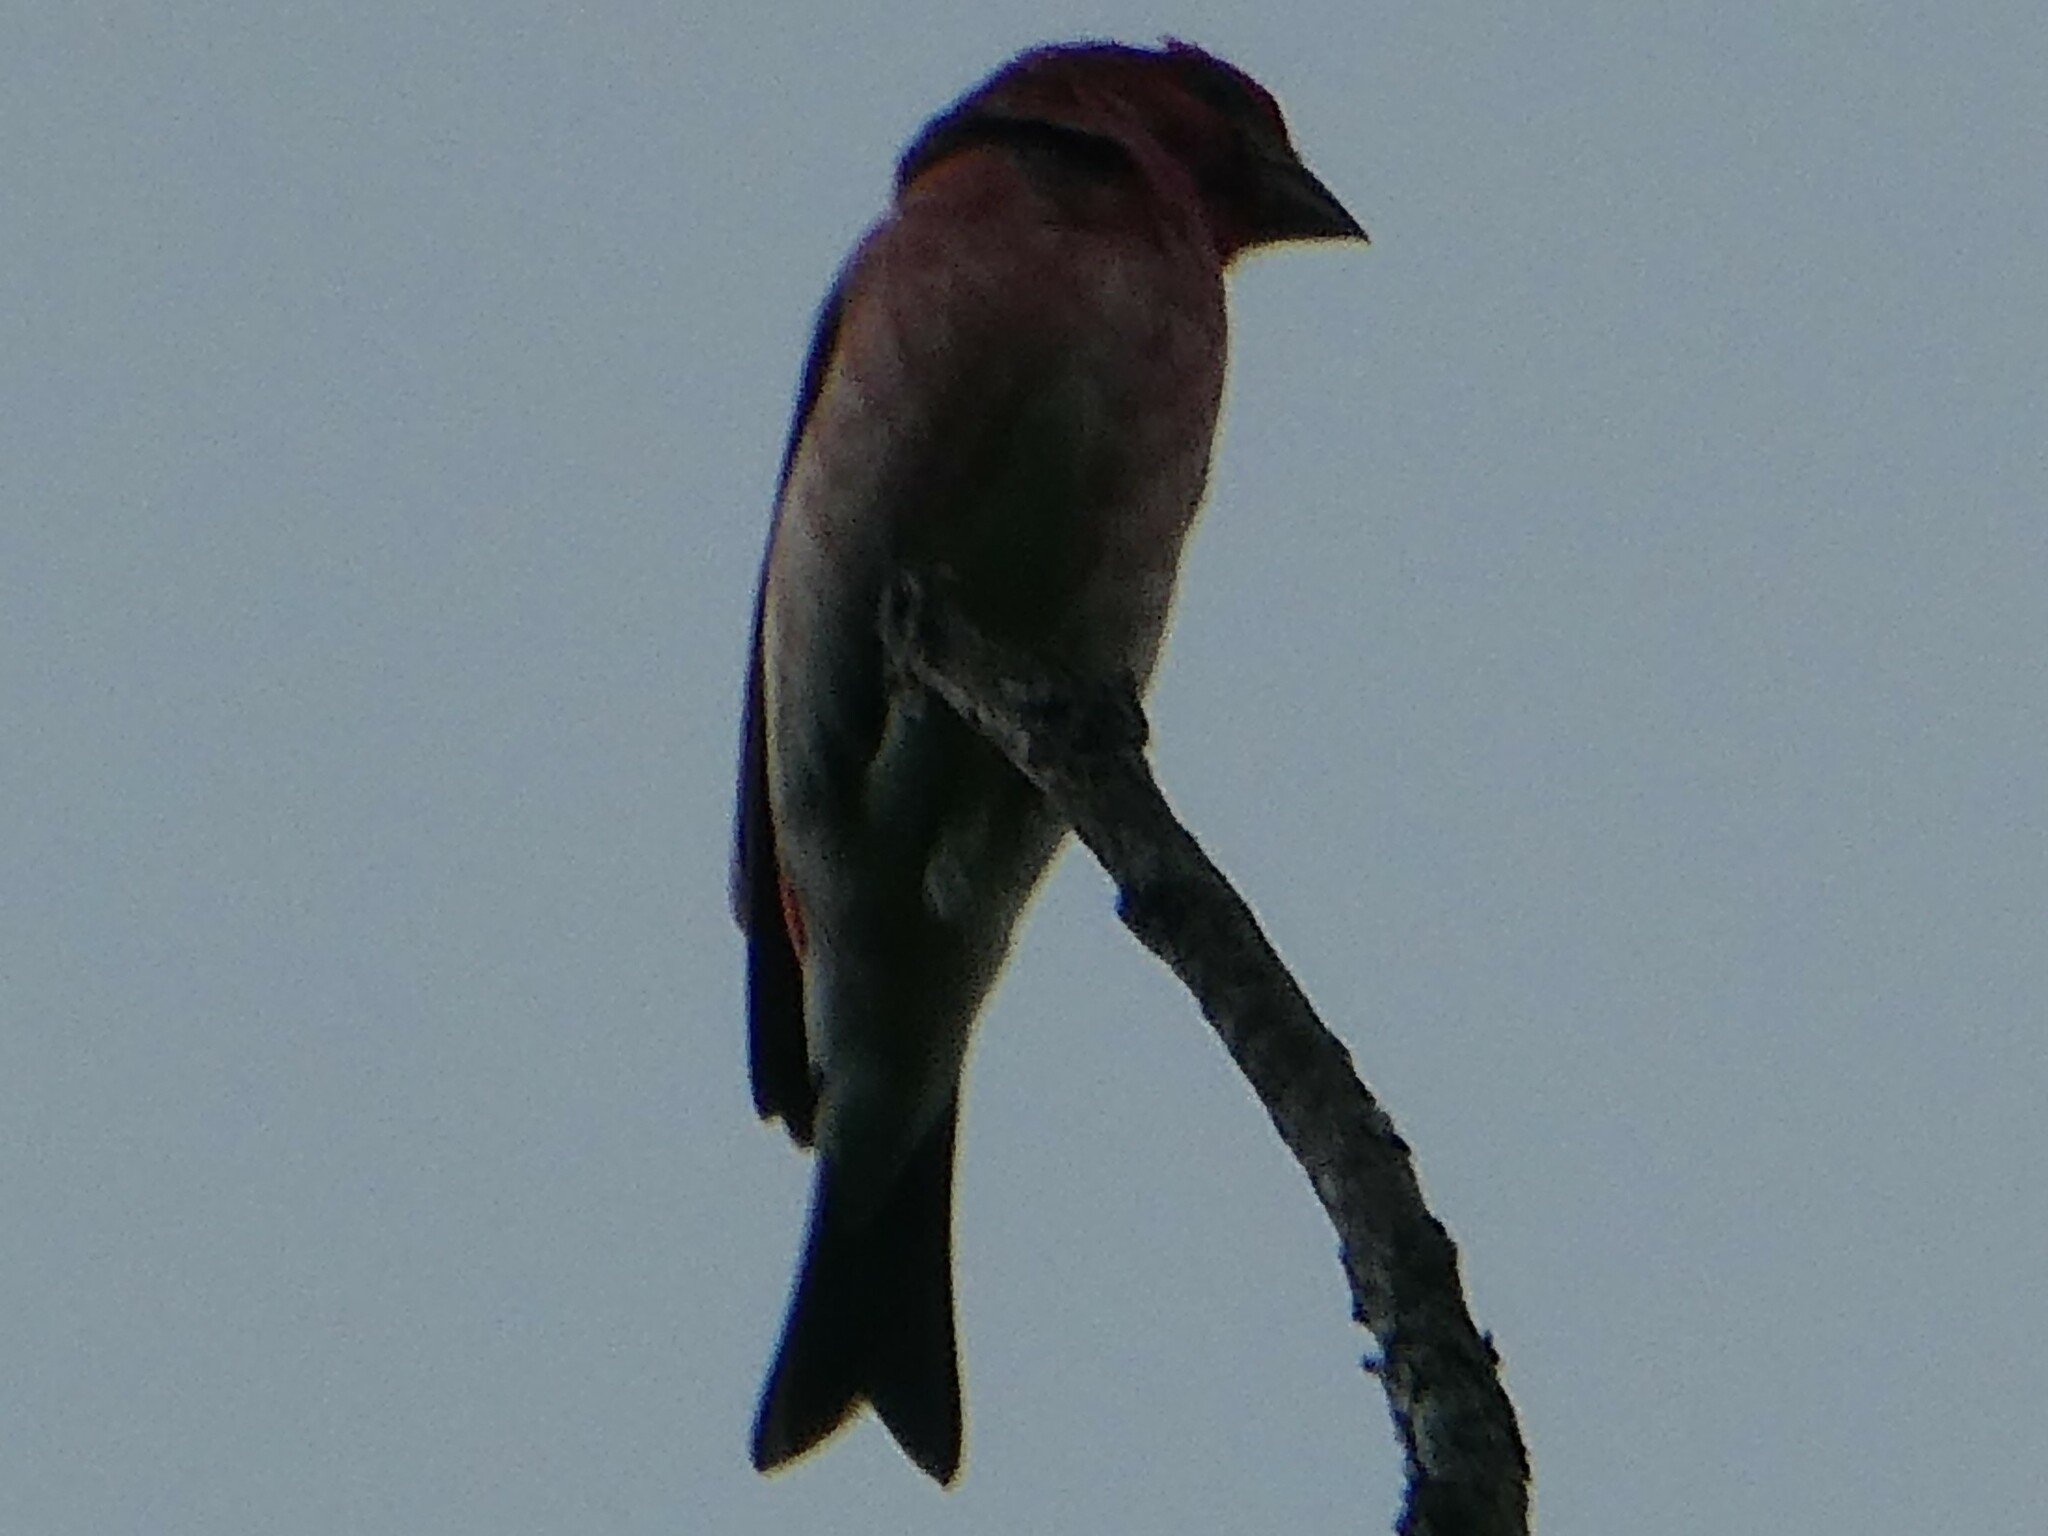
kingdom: Animalia
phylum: Chordata
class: Aves
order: Passeriformes
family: Fringillidae
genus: Haemorhous
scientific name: Haemorhous purpureus
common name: Purple finch
